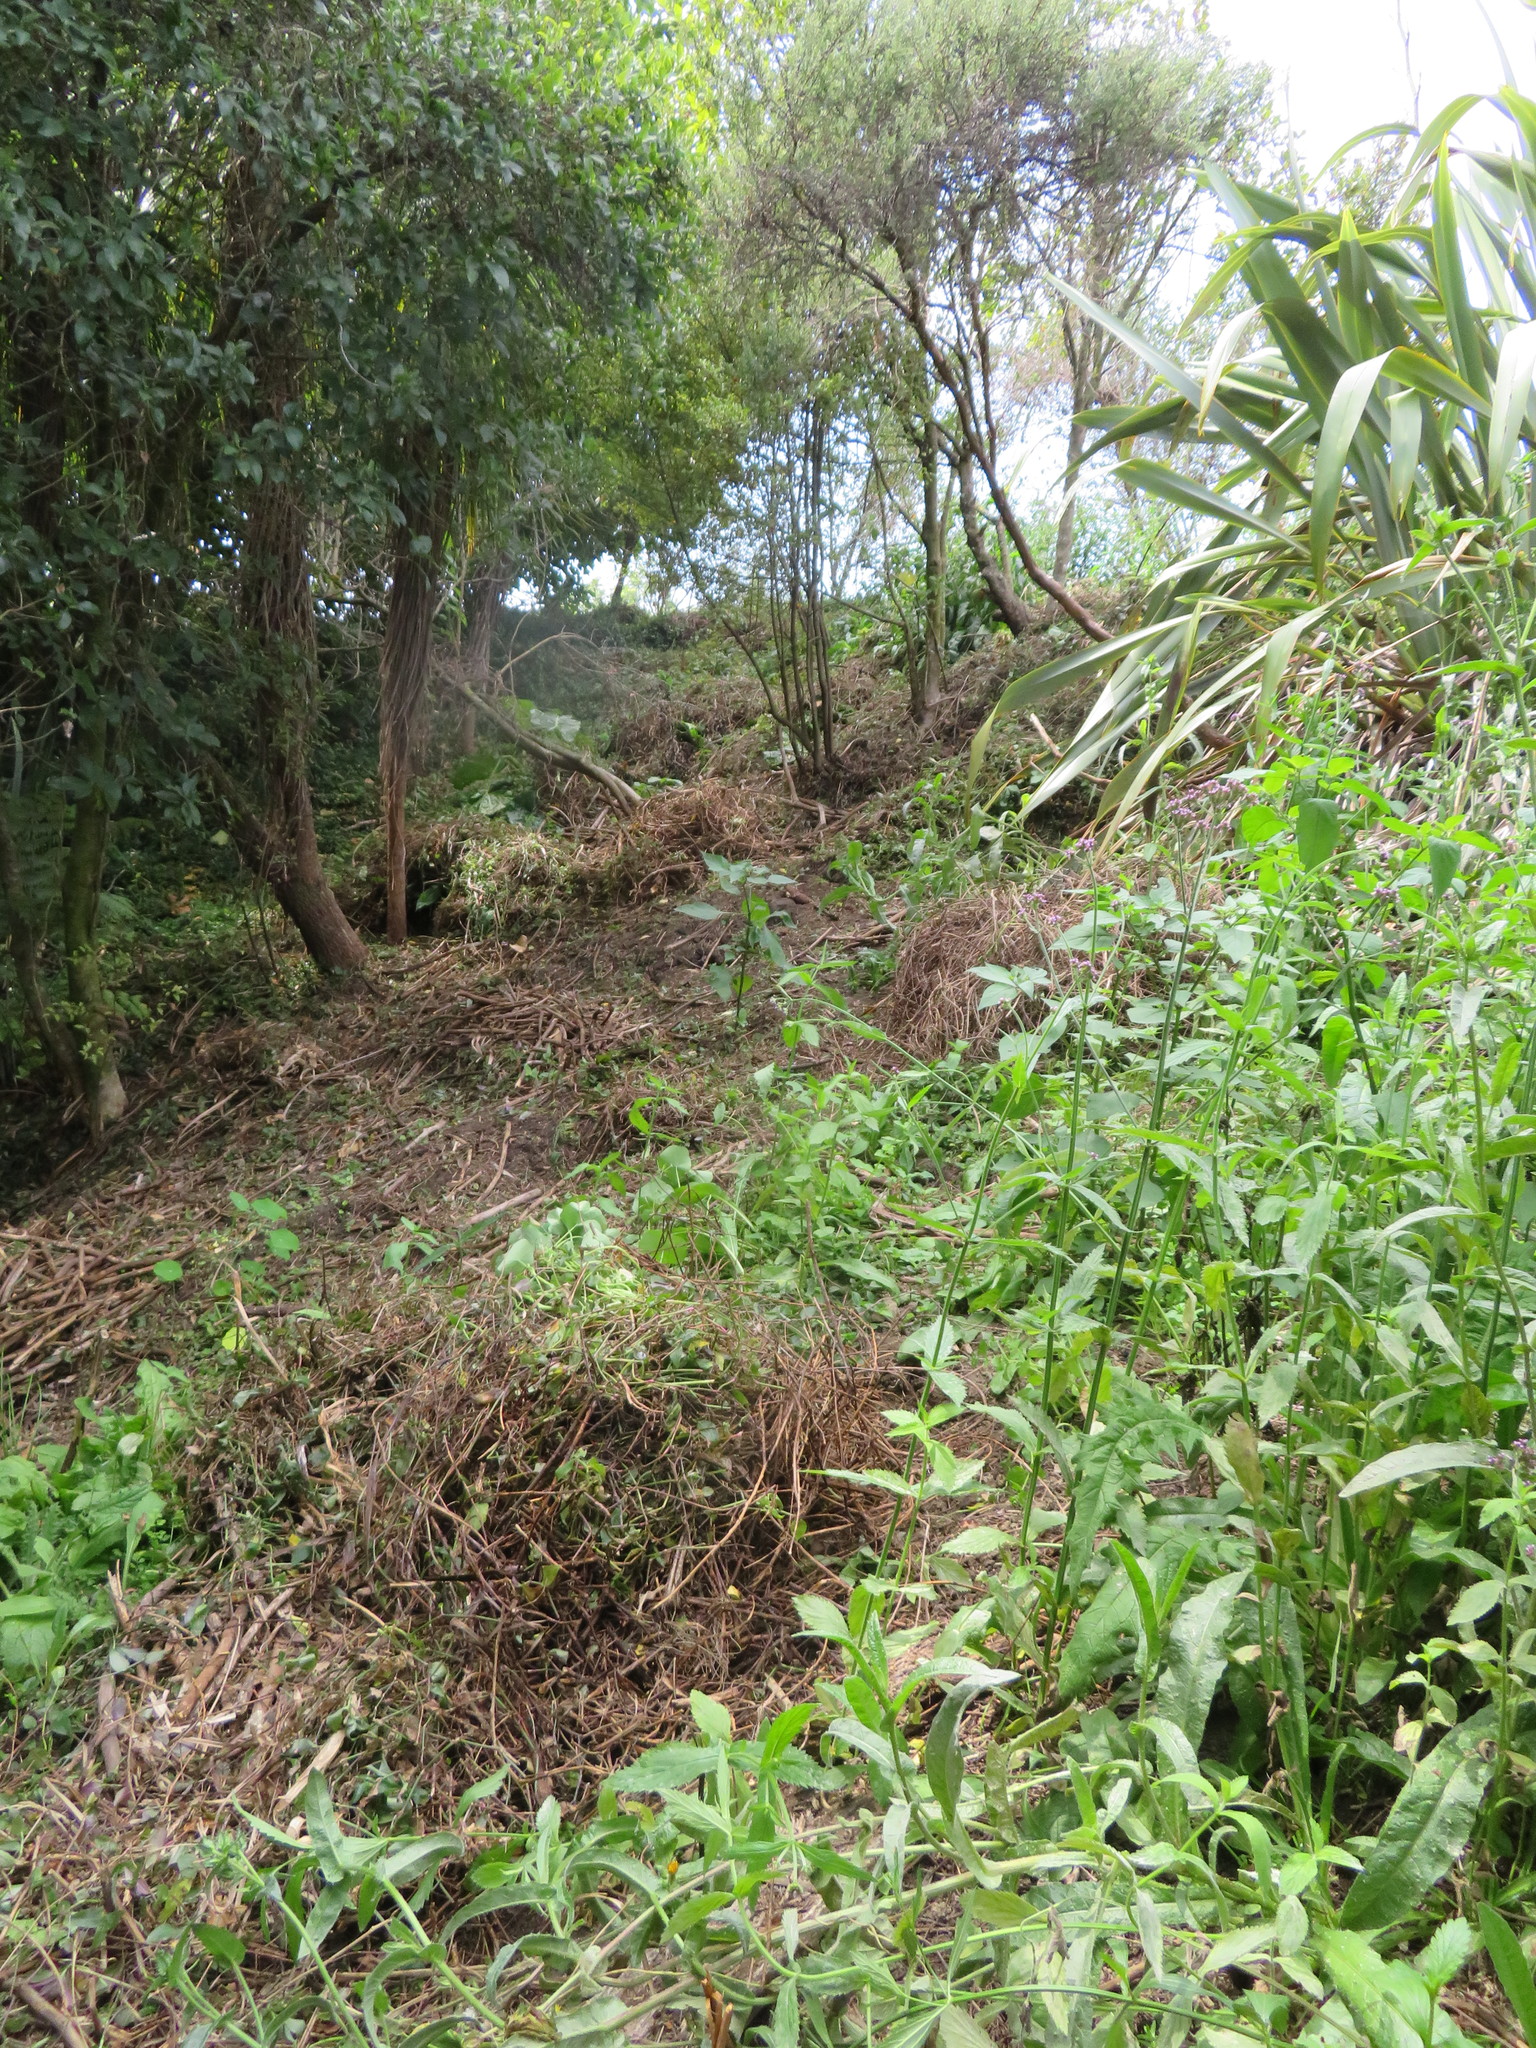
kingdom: Plantae
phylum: Tracheophyta
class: Magnoliopsida
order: Lamiales
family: Verbenaceae
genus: Verbena
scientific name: Verbena incompta
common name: Purpletop vervain
